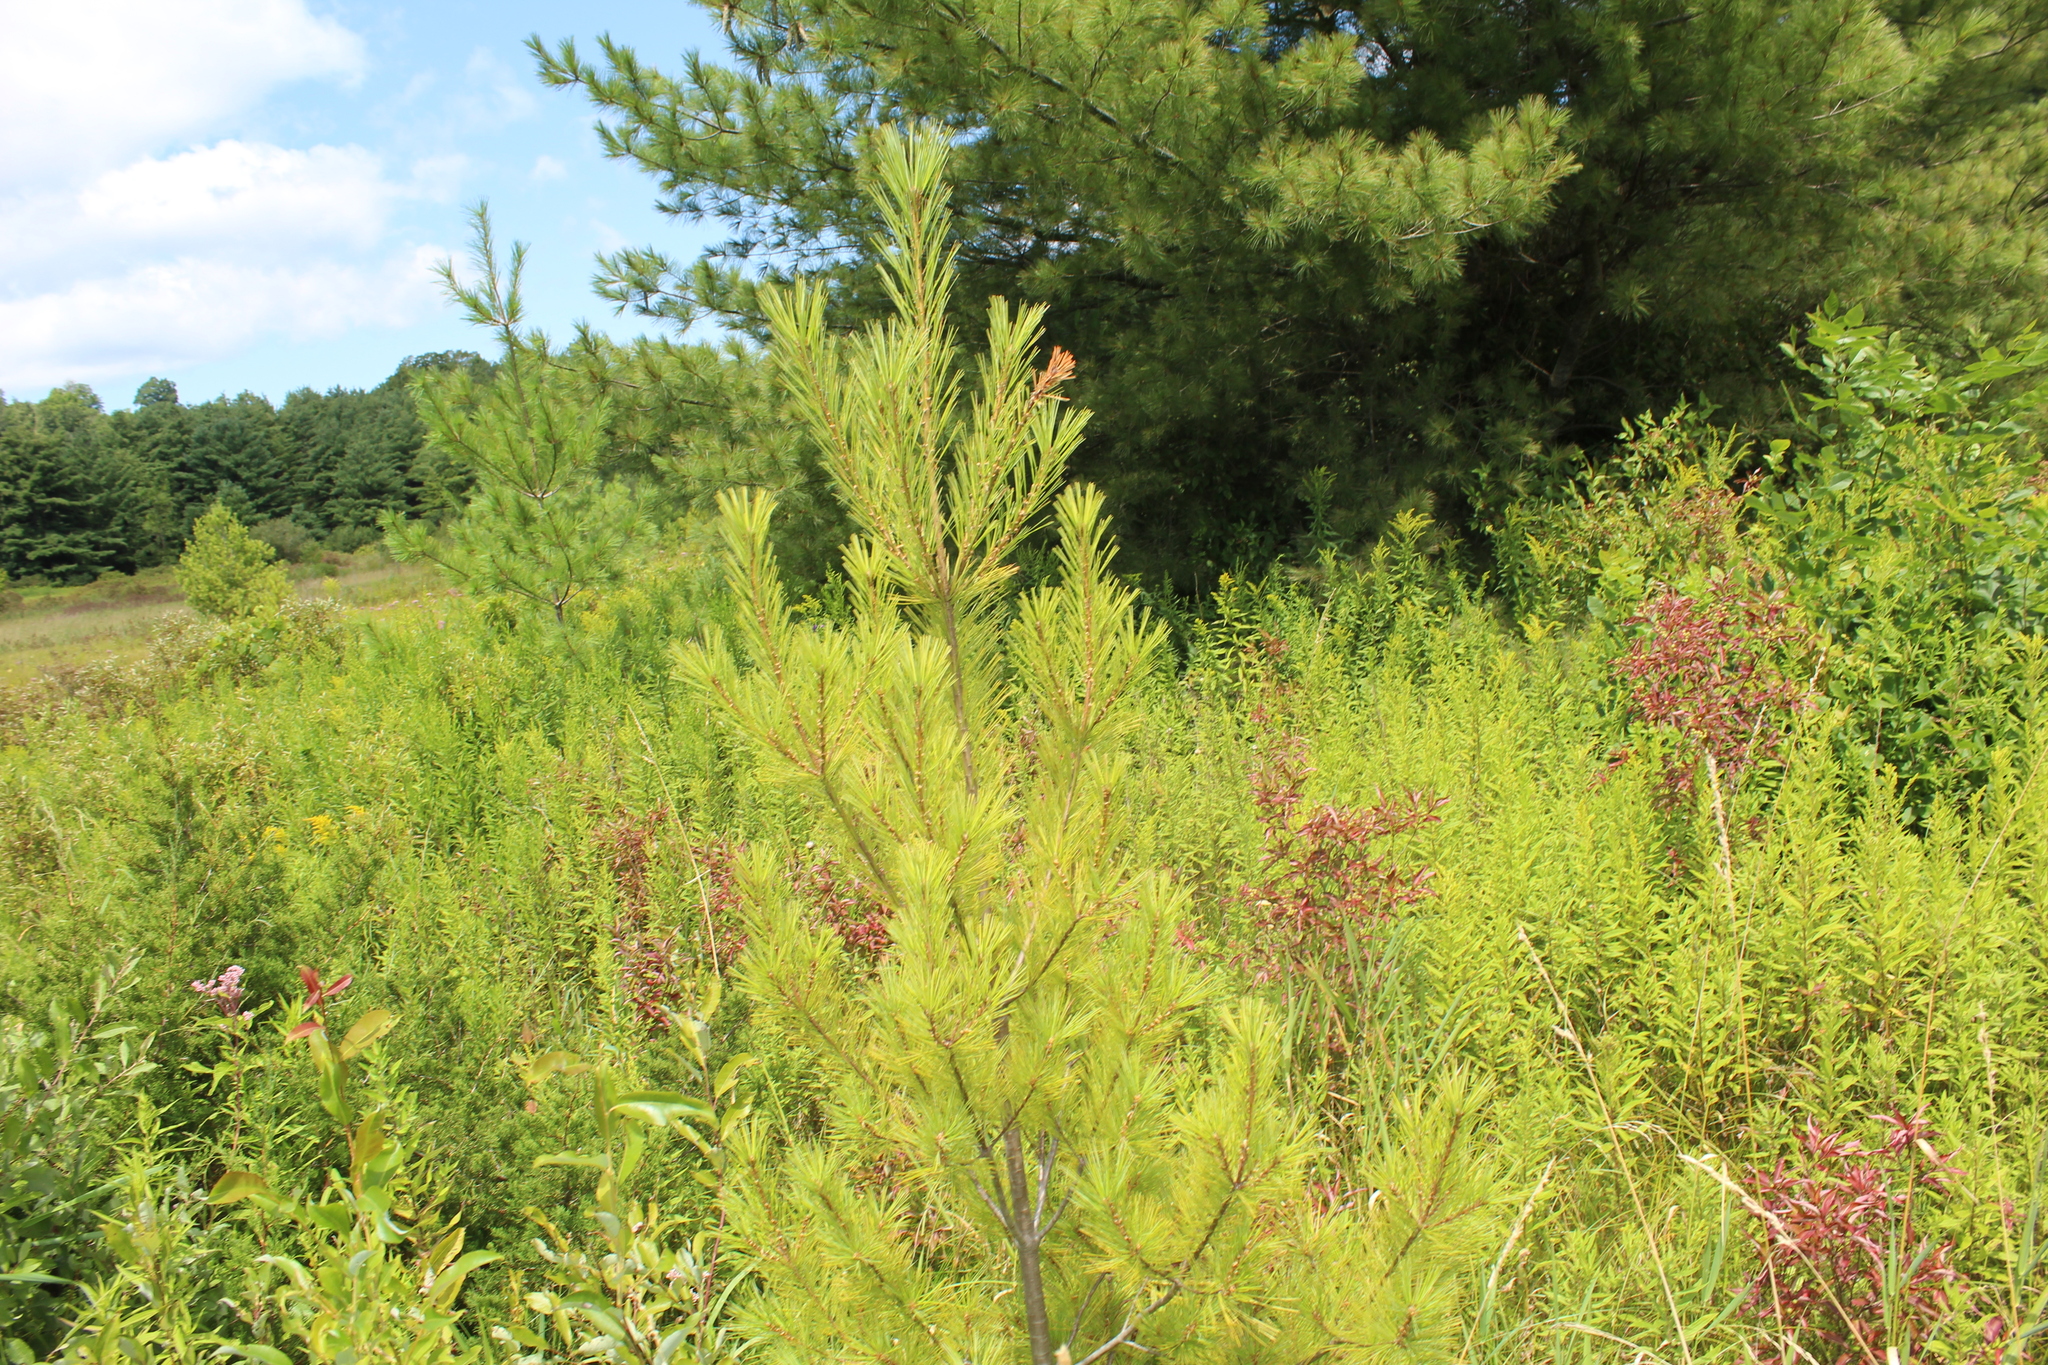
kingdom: Plantae
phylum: Tracheophyta
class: Pinopsida
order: Pinales
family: Pinaceae
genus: Pinus
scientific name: Pinus strobus
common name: Weymouth pine
